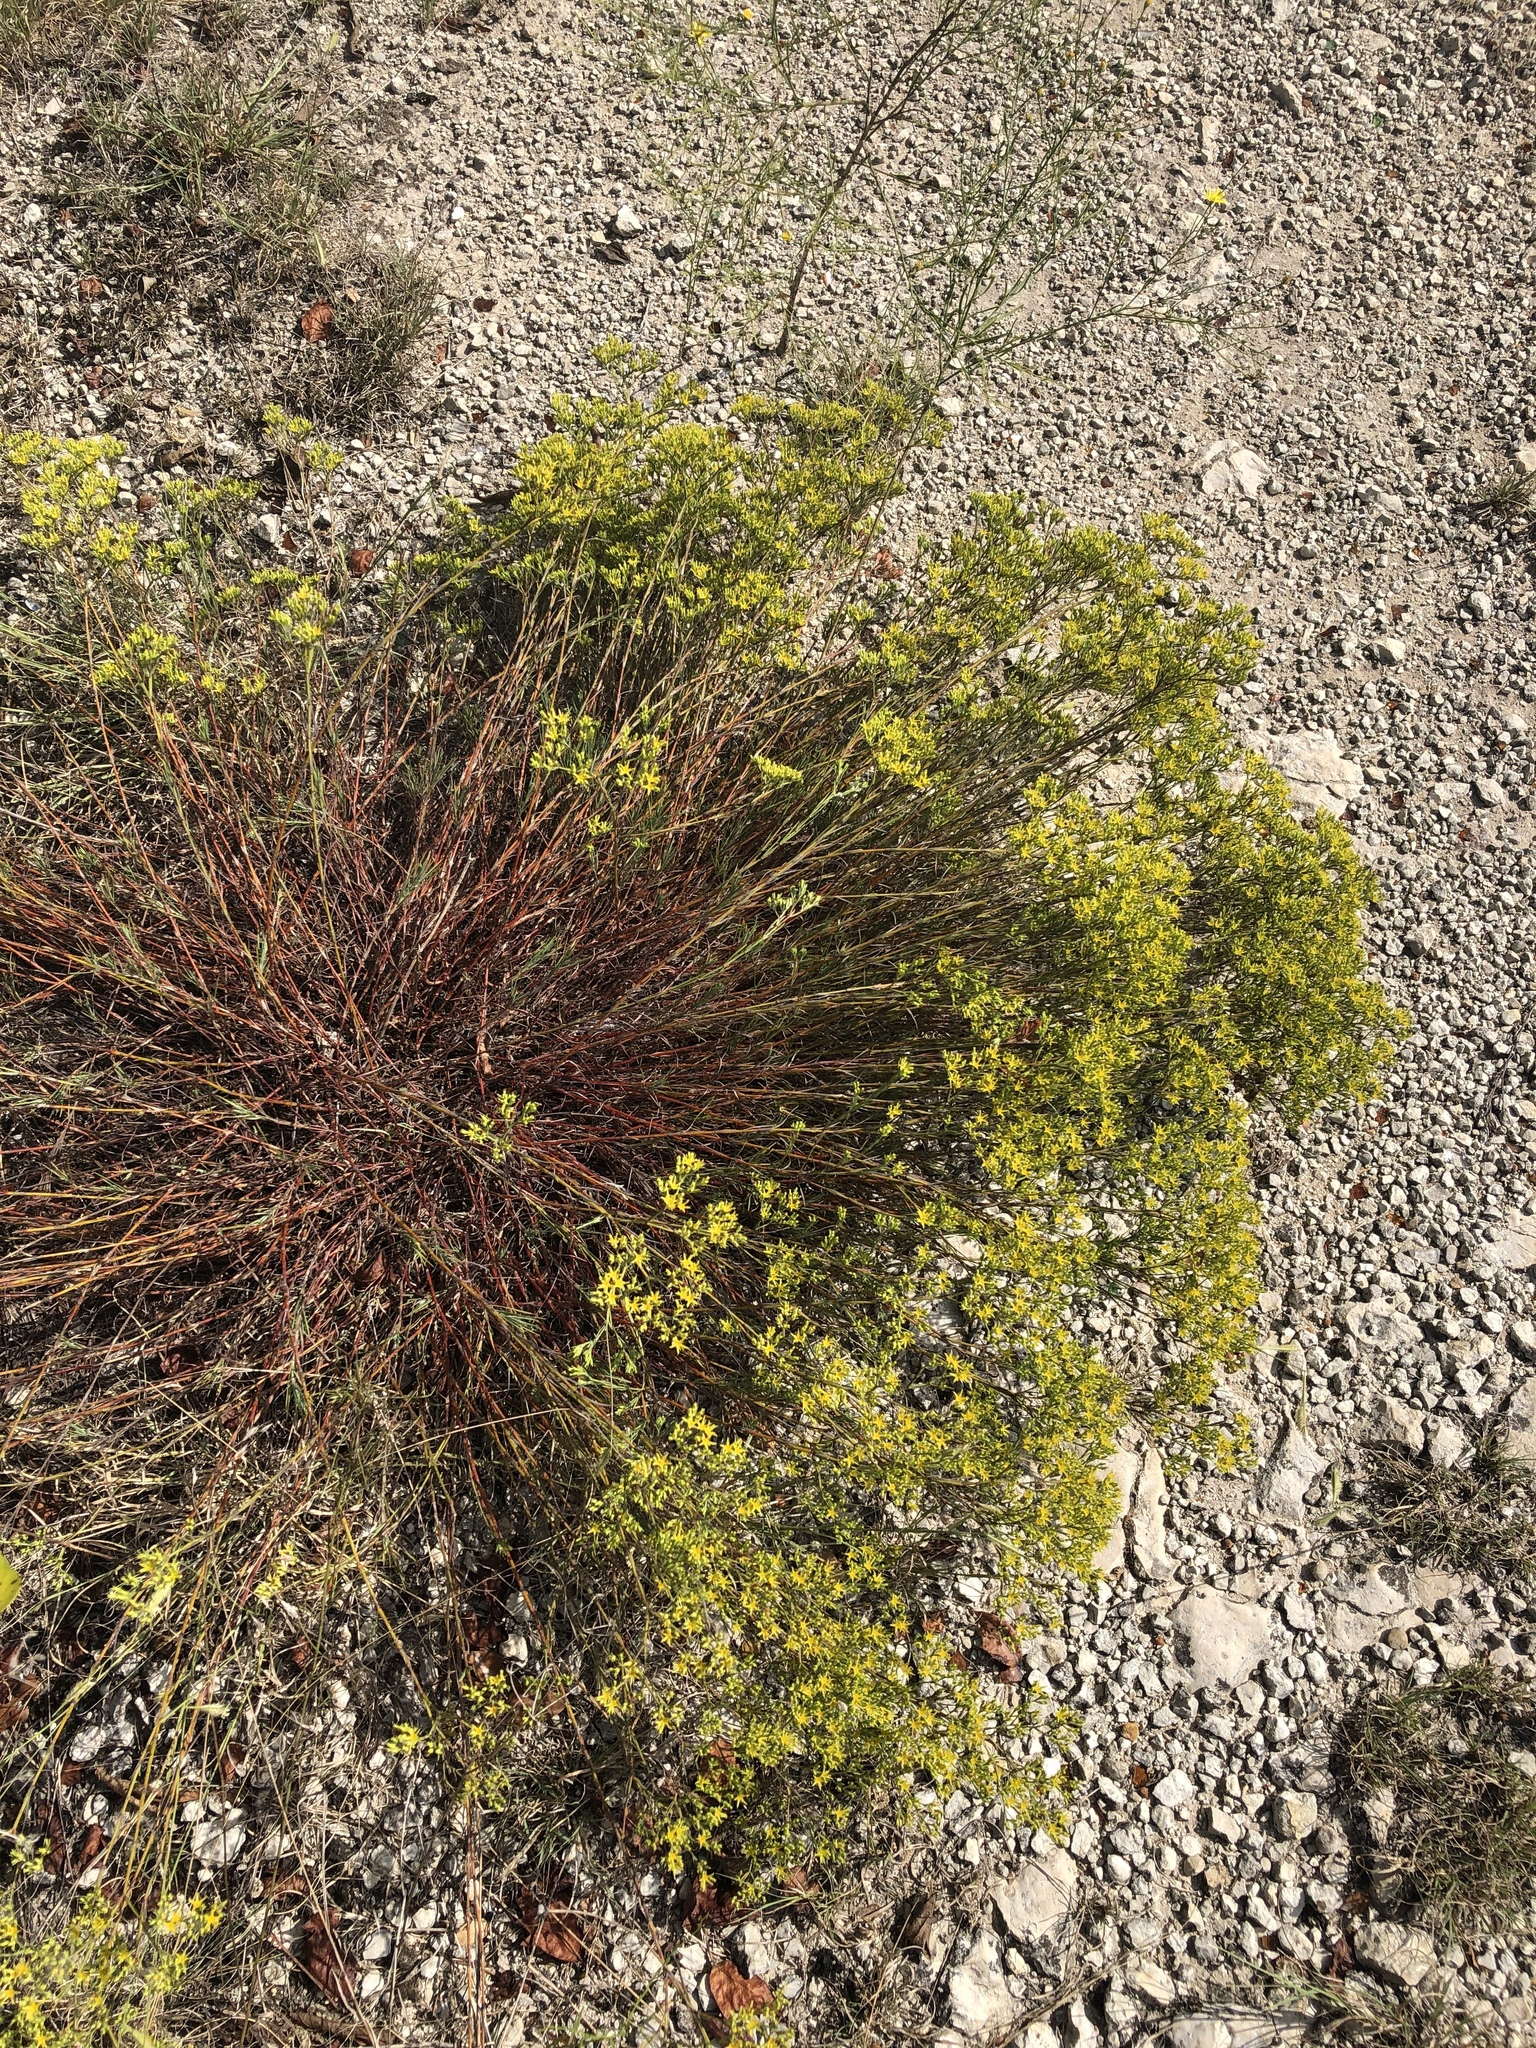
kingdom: Plantae
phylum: Tracheophyta
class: Magnoliopsida
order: Caryophyllales
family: Caryophyllaceae
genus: Paronychia
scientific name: Paronychia virginica
